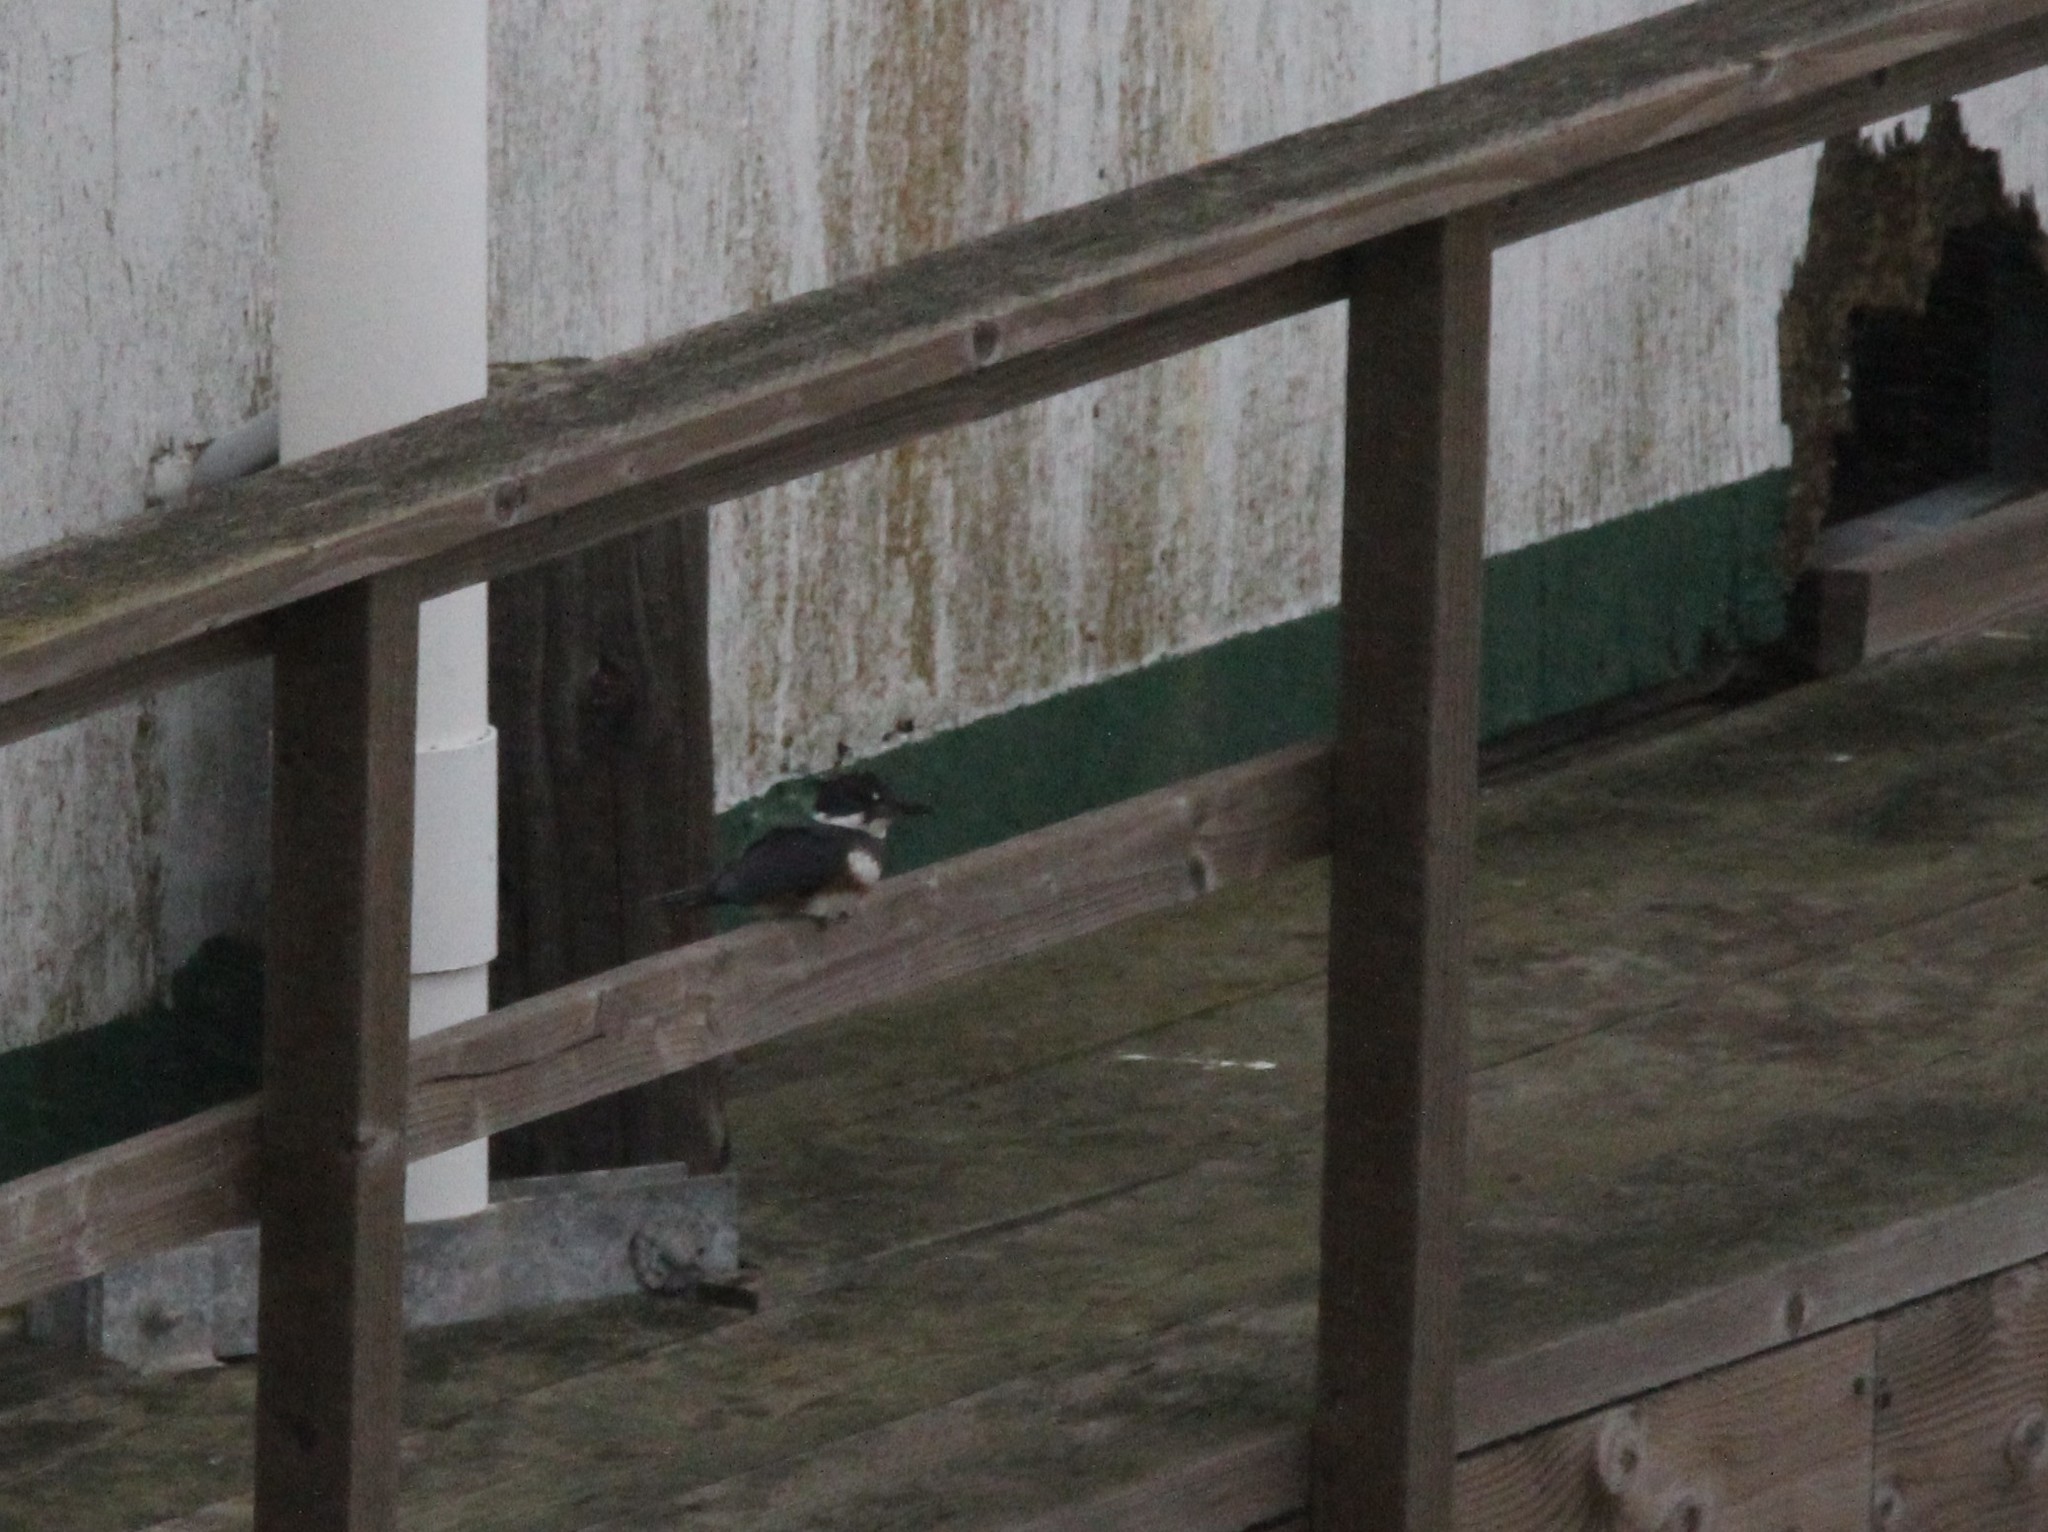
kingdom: Animalia
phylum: Chordata
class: Aves
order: Coraciiformes
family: Alcedinidae
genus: Megaceryle
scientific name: Megaceryle alcyon
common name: Belted kingfisher
